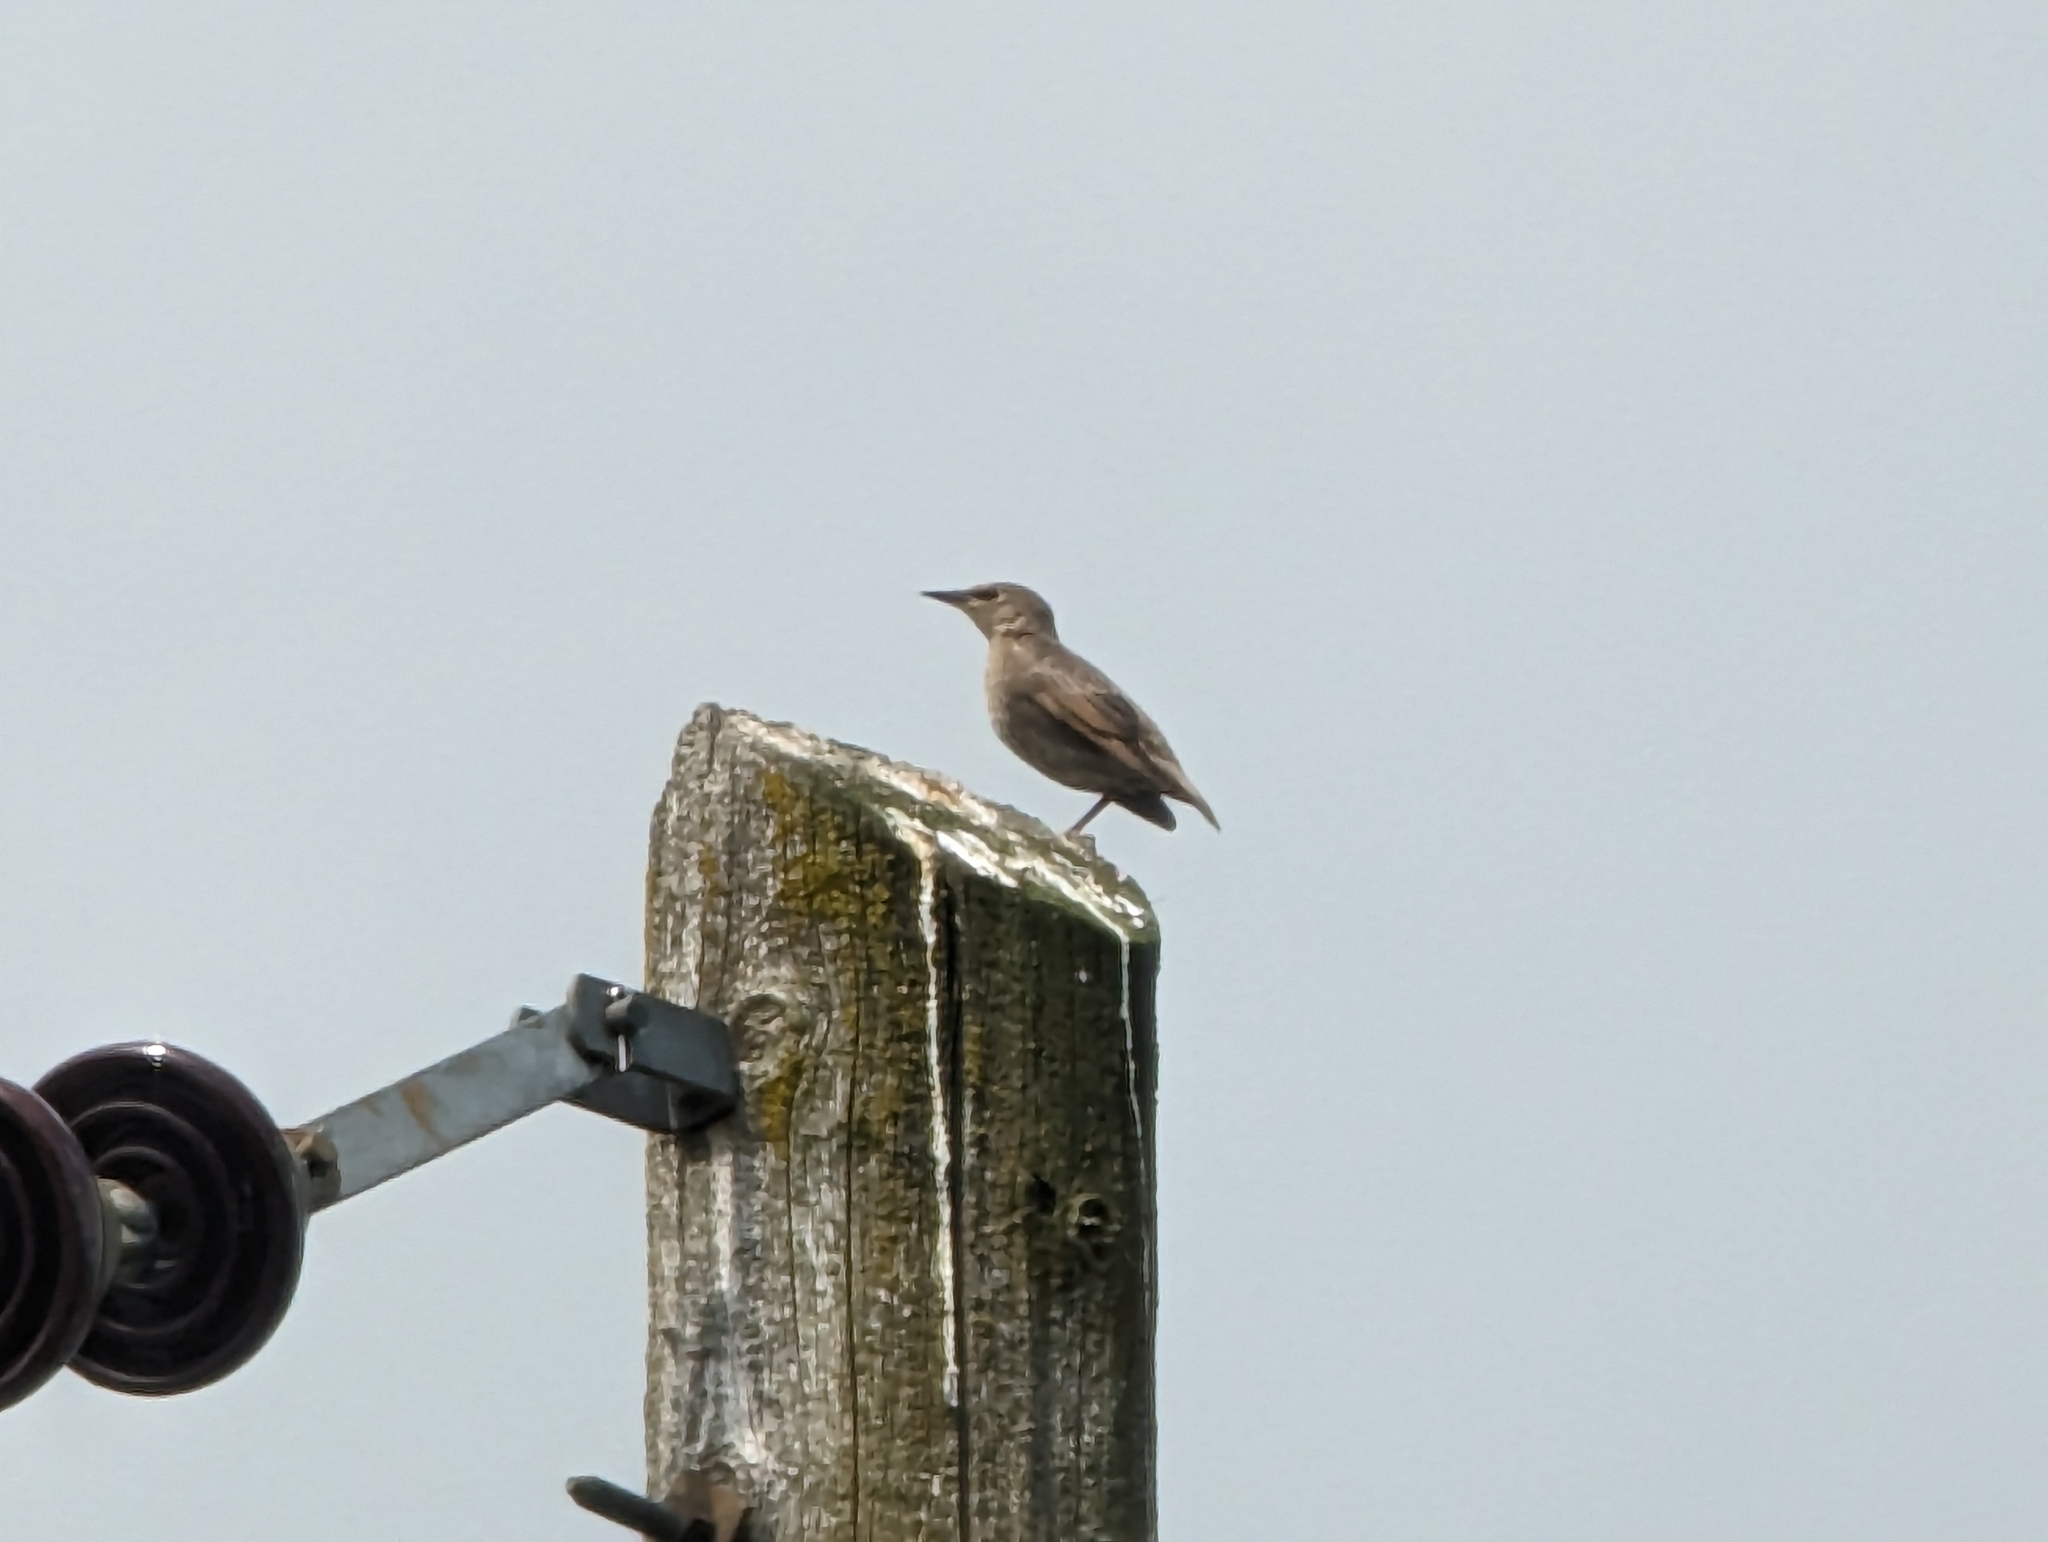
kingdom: Animalia
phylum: Chordata
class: Aves
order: Passeriformes
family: Sturnidae
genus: Sturnus
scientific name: Sturnus vulgaris
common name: Common starling
